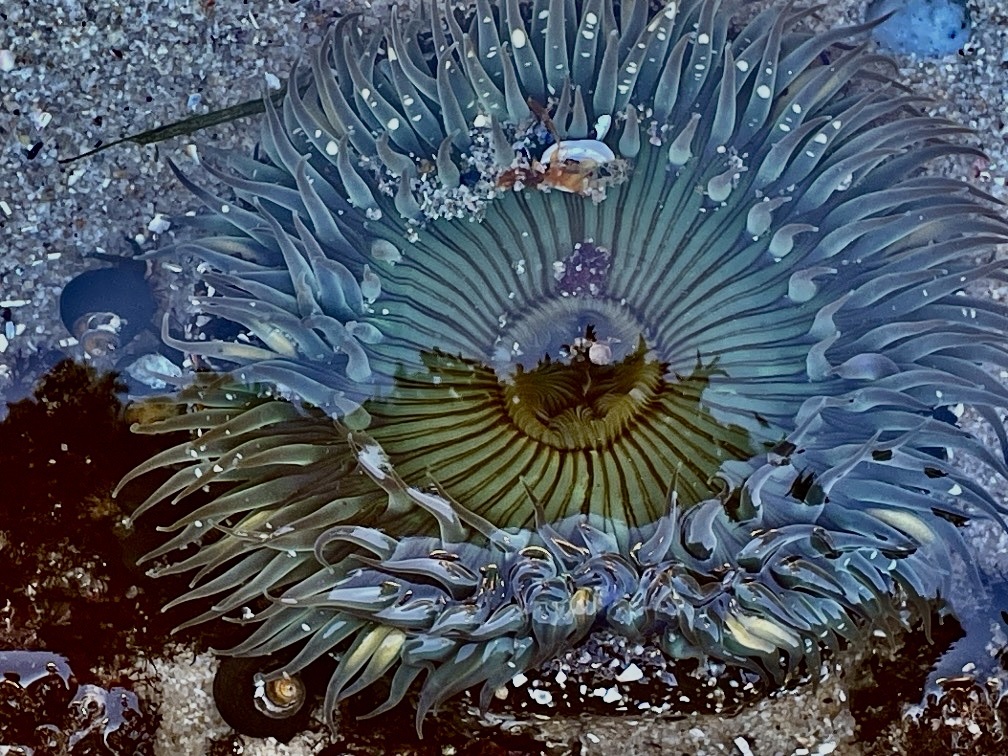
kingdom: Animalia
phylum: Cnidaria
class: Anthozoa
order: Actiniaria
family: Actiniidae
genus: Anthopleura
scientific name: Anthopleura sola
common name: Sun anemone
